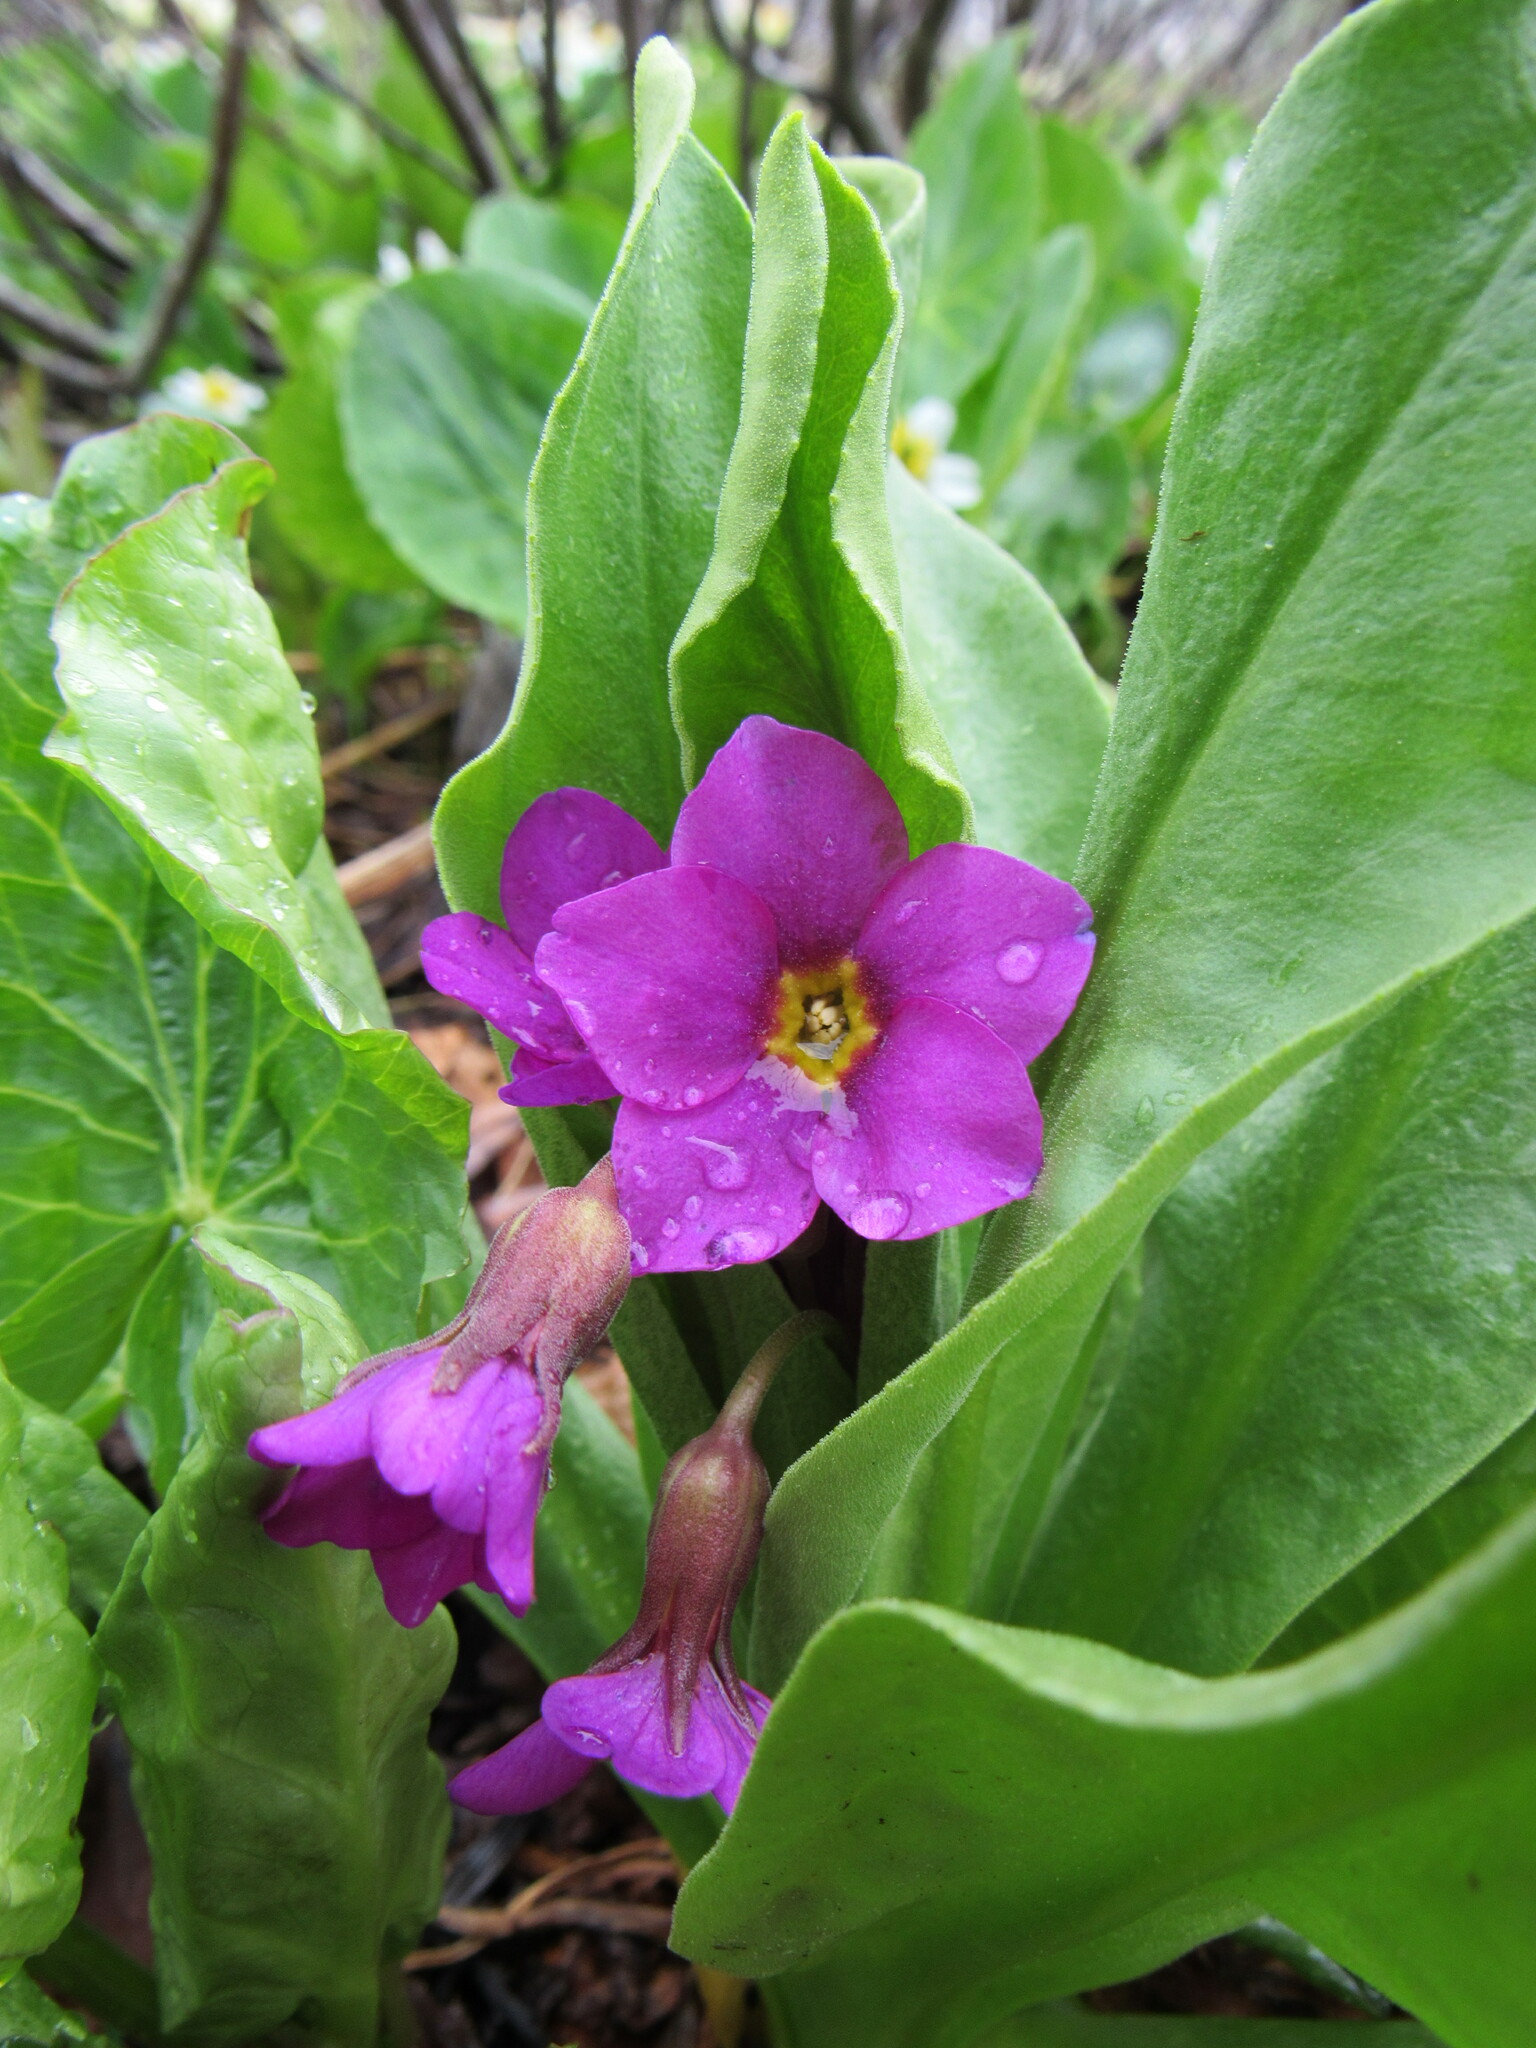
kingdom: Plantae
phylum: Tracheophyta
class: Magnoliopsida
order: Ericales
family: Primulaceae
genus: Primula
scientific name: Primula parryi
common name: Parry's primrose
